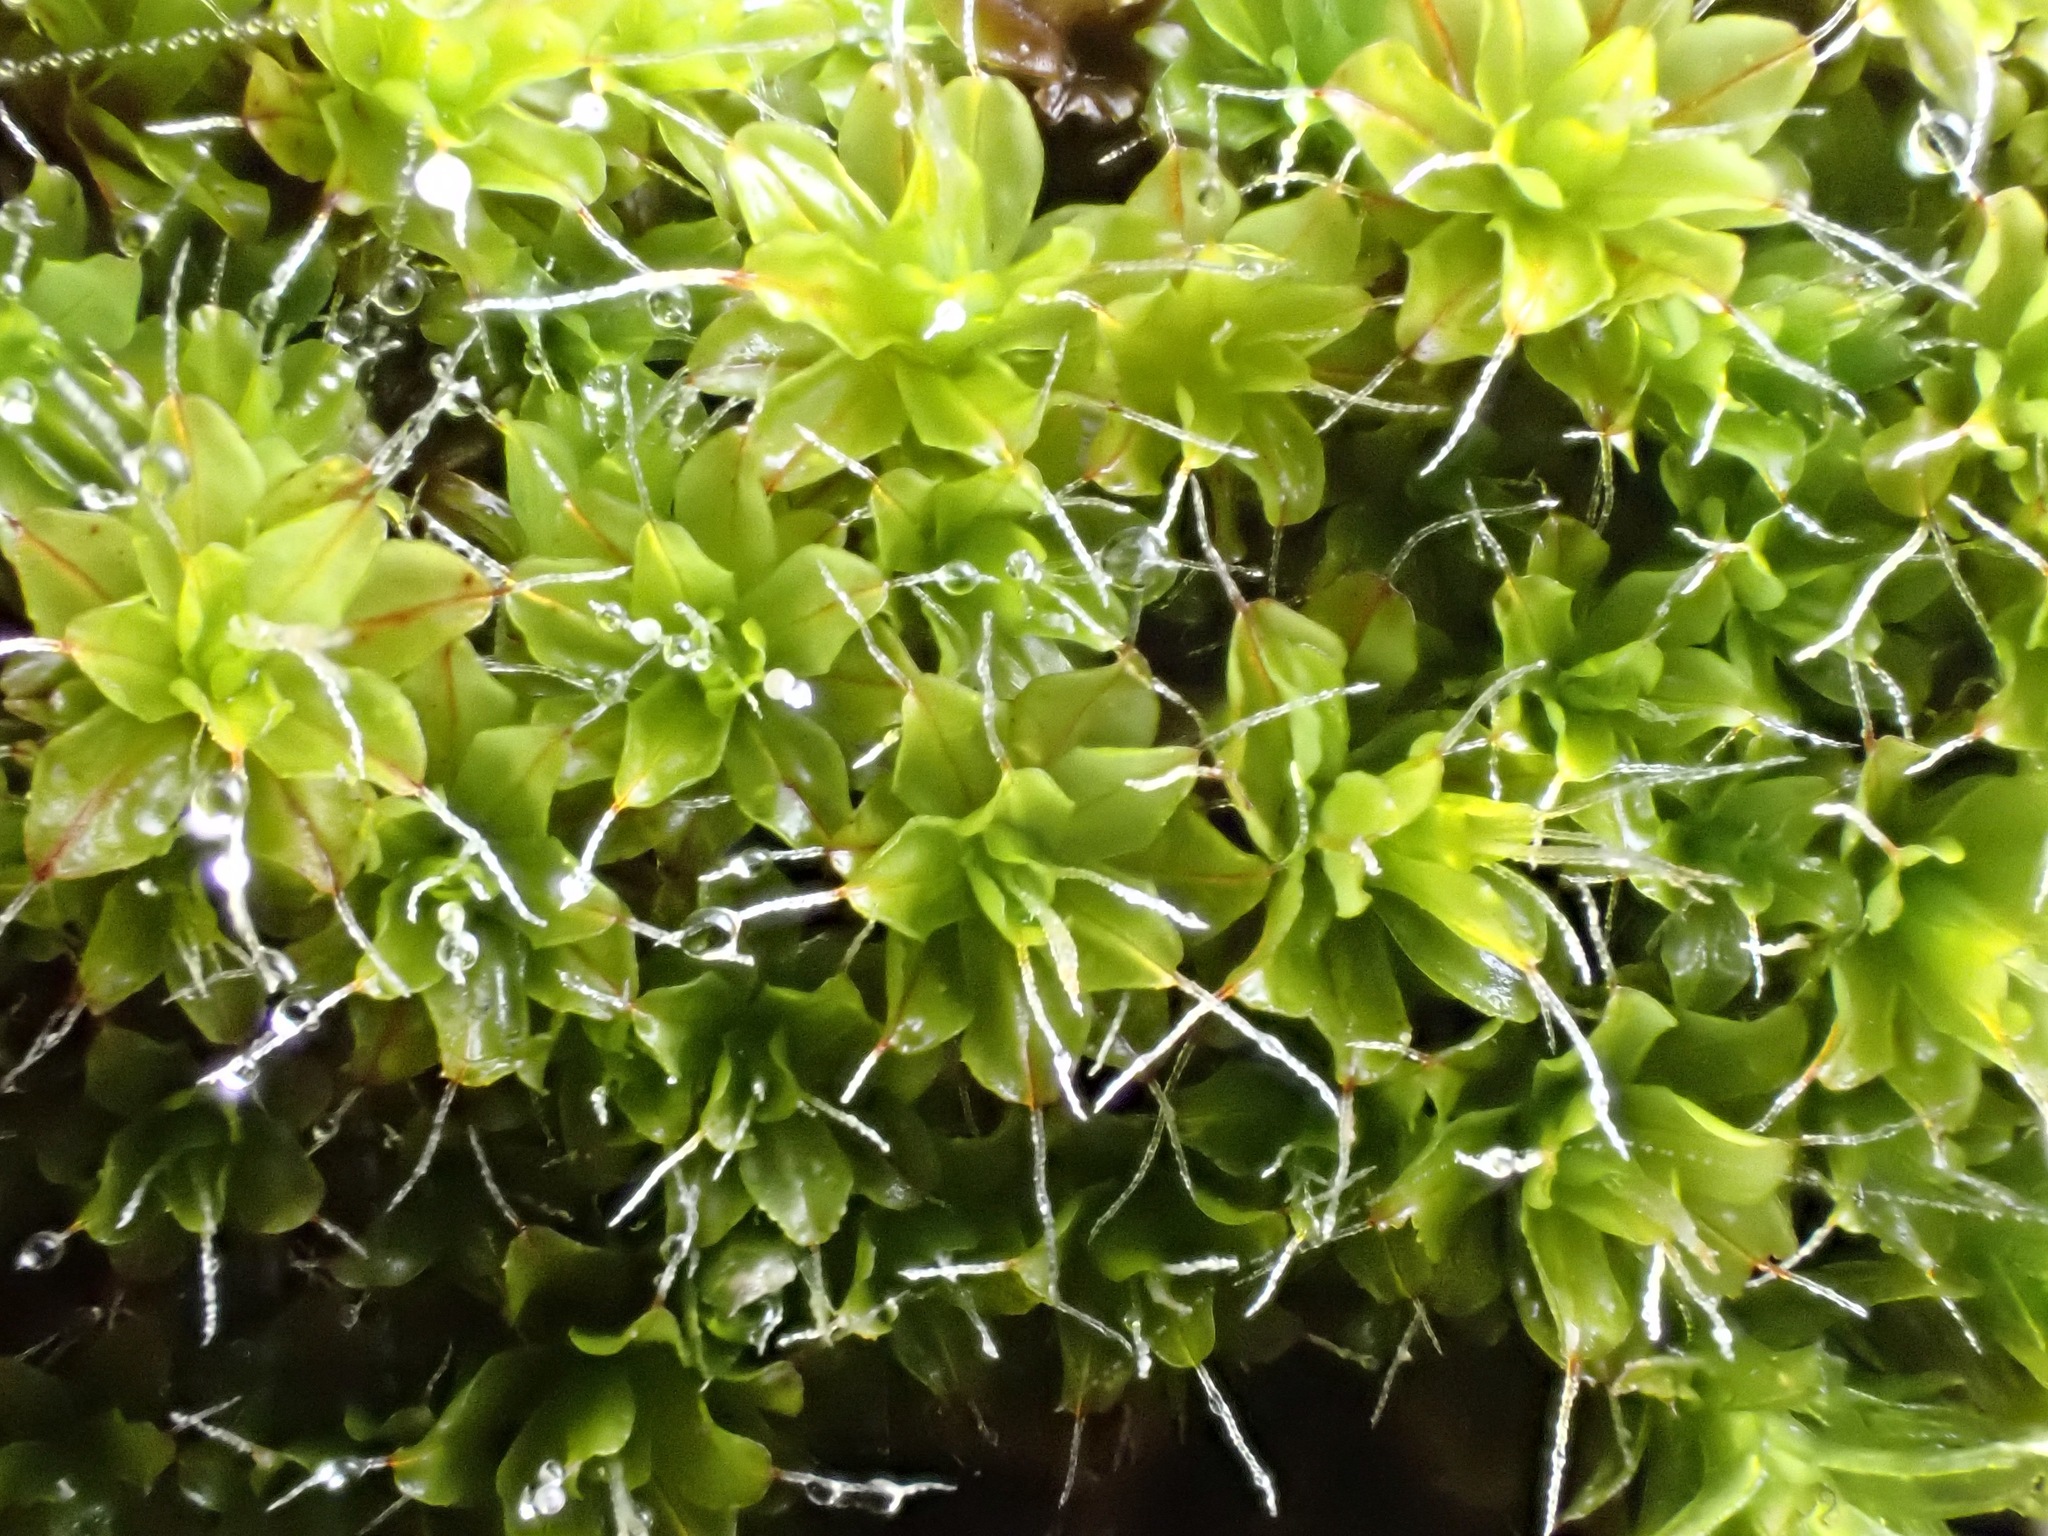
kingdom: Plantae
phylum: Bryophyta
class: Bryopsida
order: Pottiales
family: Pottiaceae
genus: Syntrichia
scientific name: Syntrichia ruralis
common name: Sidewalk screw moss
